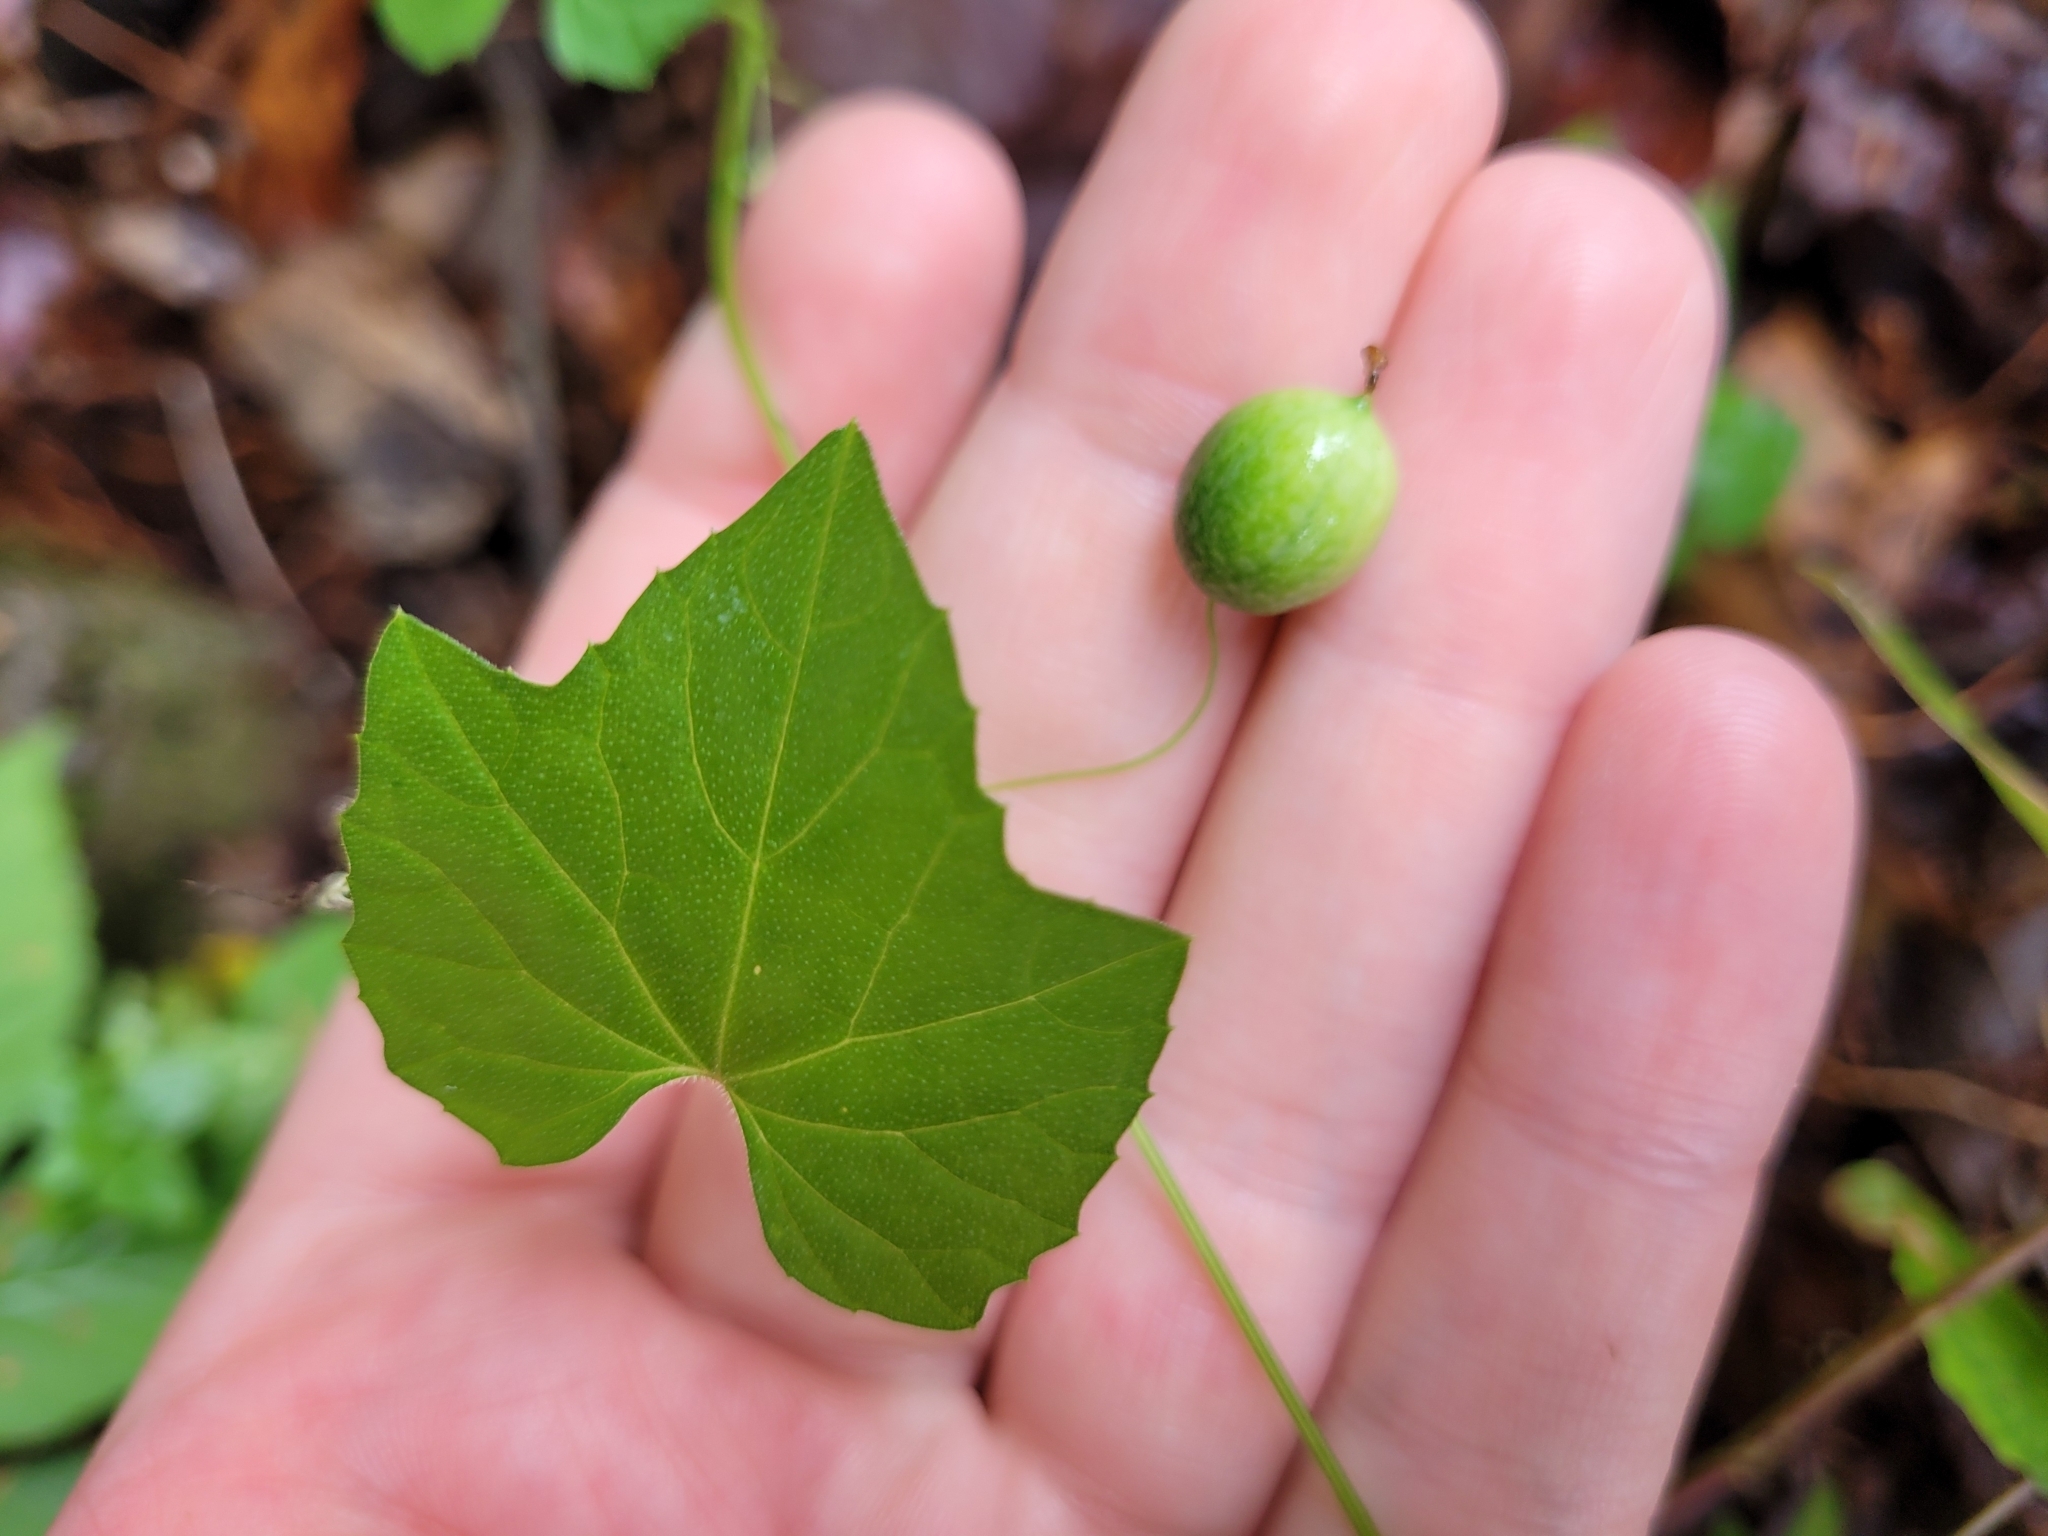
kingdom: Plantae
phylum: Tracheophyta
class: Magnoliopsida
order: Cucurbitales
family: Cucurbitaceae
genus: Melothria
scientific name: Melothria pendula
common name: Creeping-cucumber
